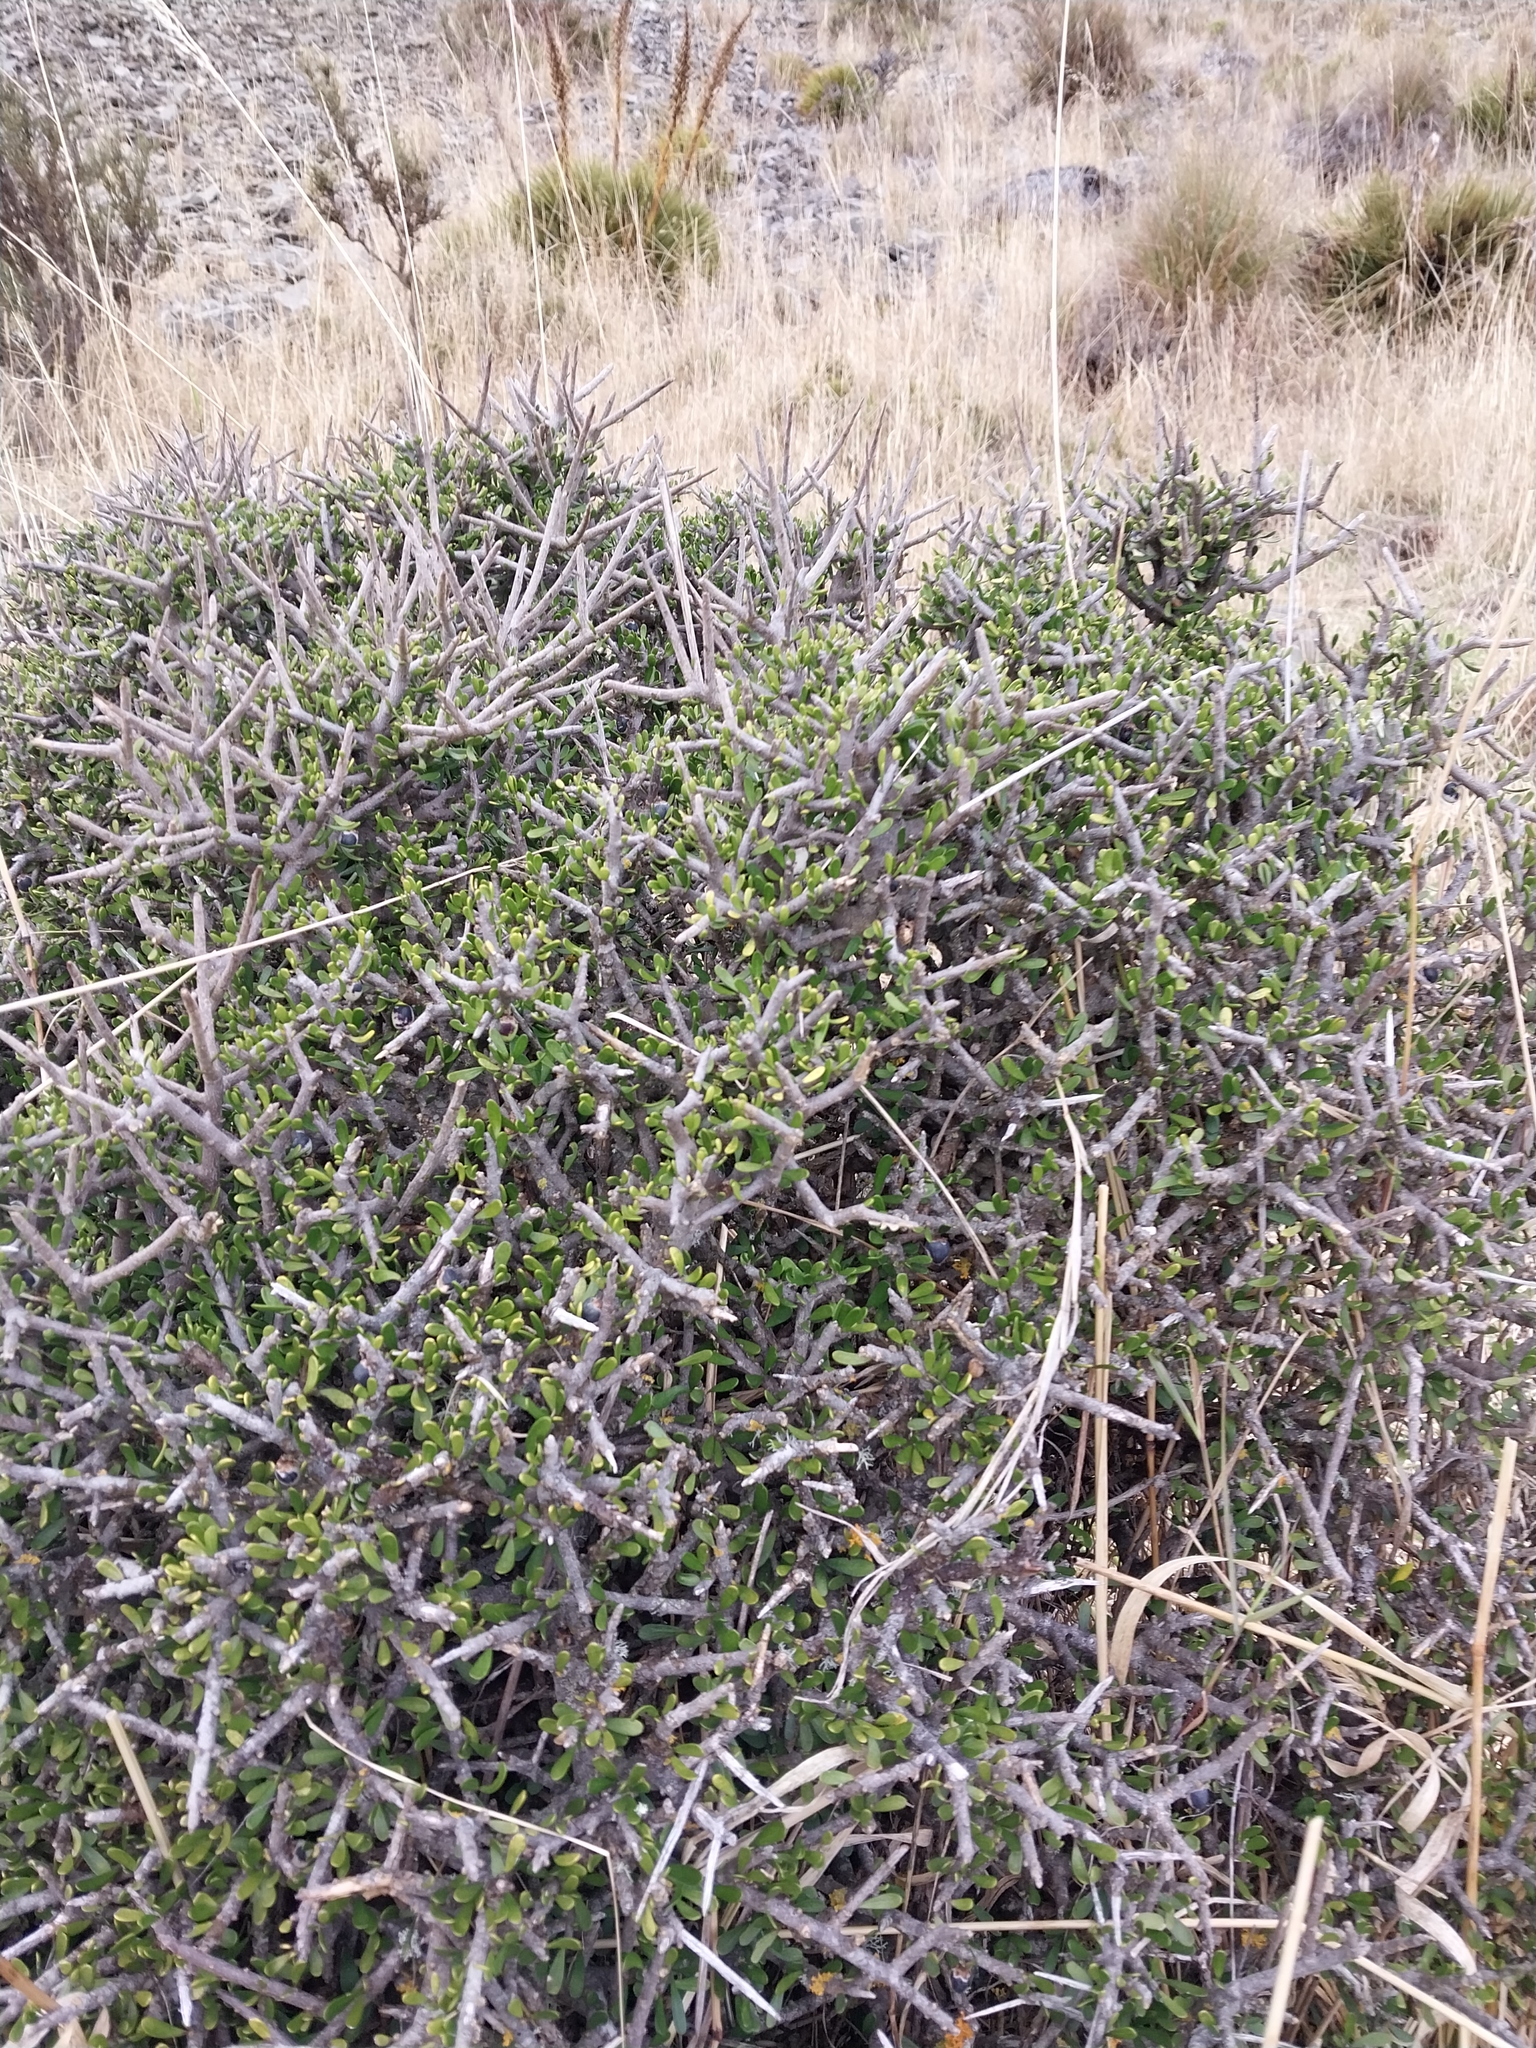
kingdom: Plantae
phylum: Tracheophyta
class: Magnoliopsida
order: Malpighiales
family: Violaceae
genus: Melicytus
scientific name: Melicytus alpinus
